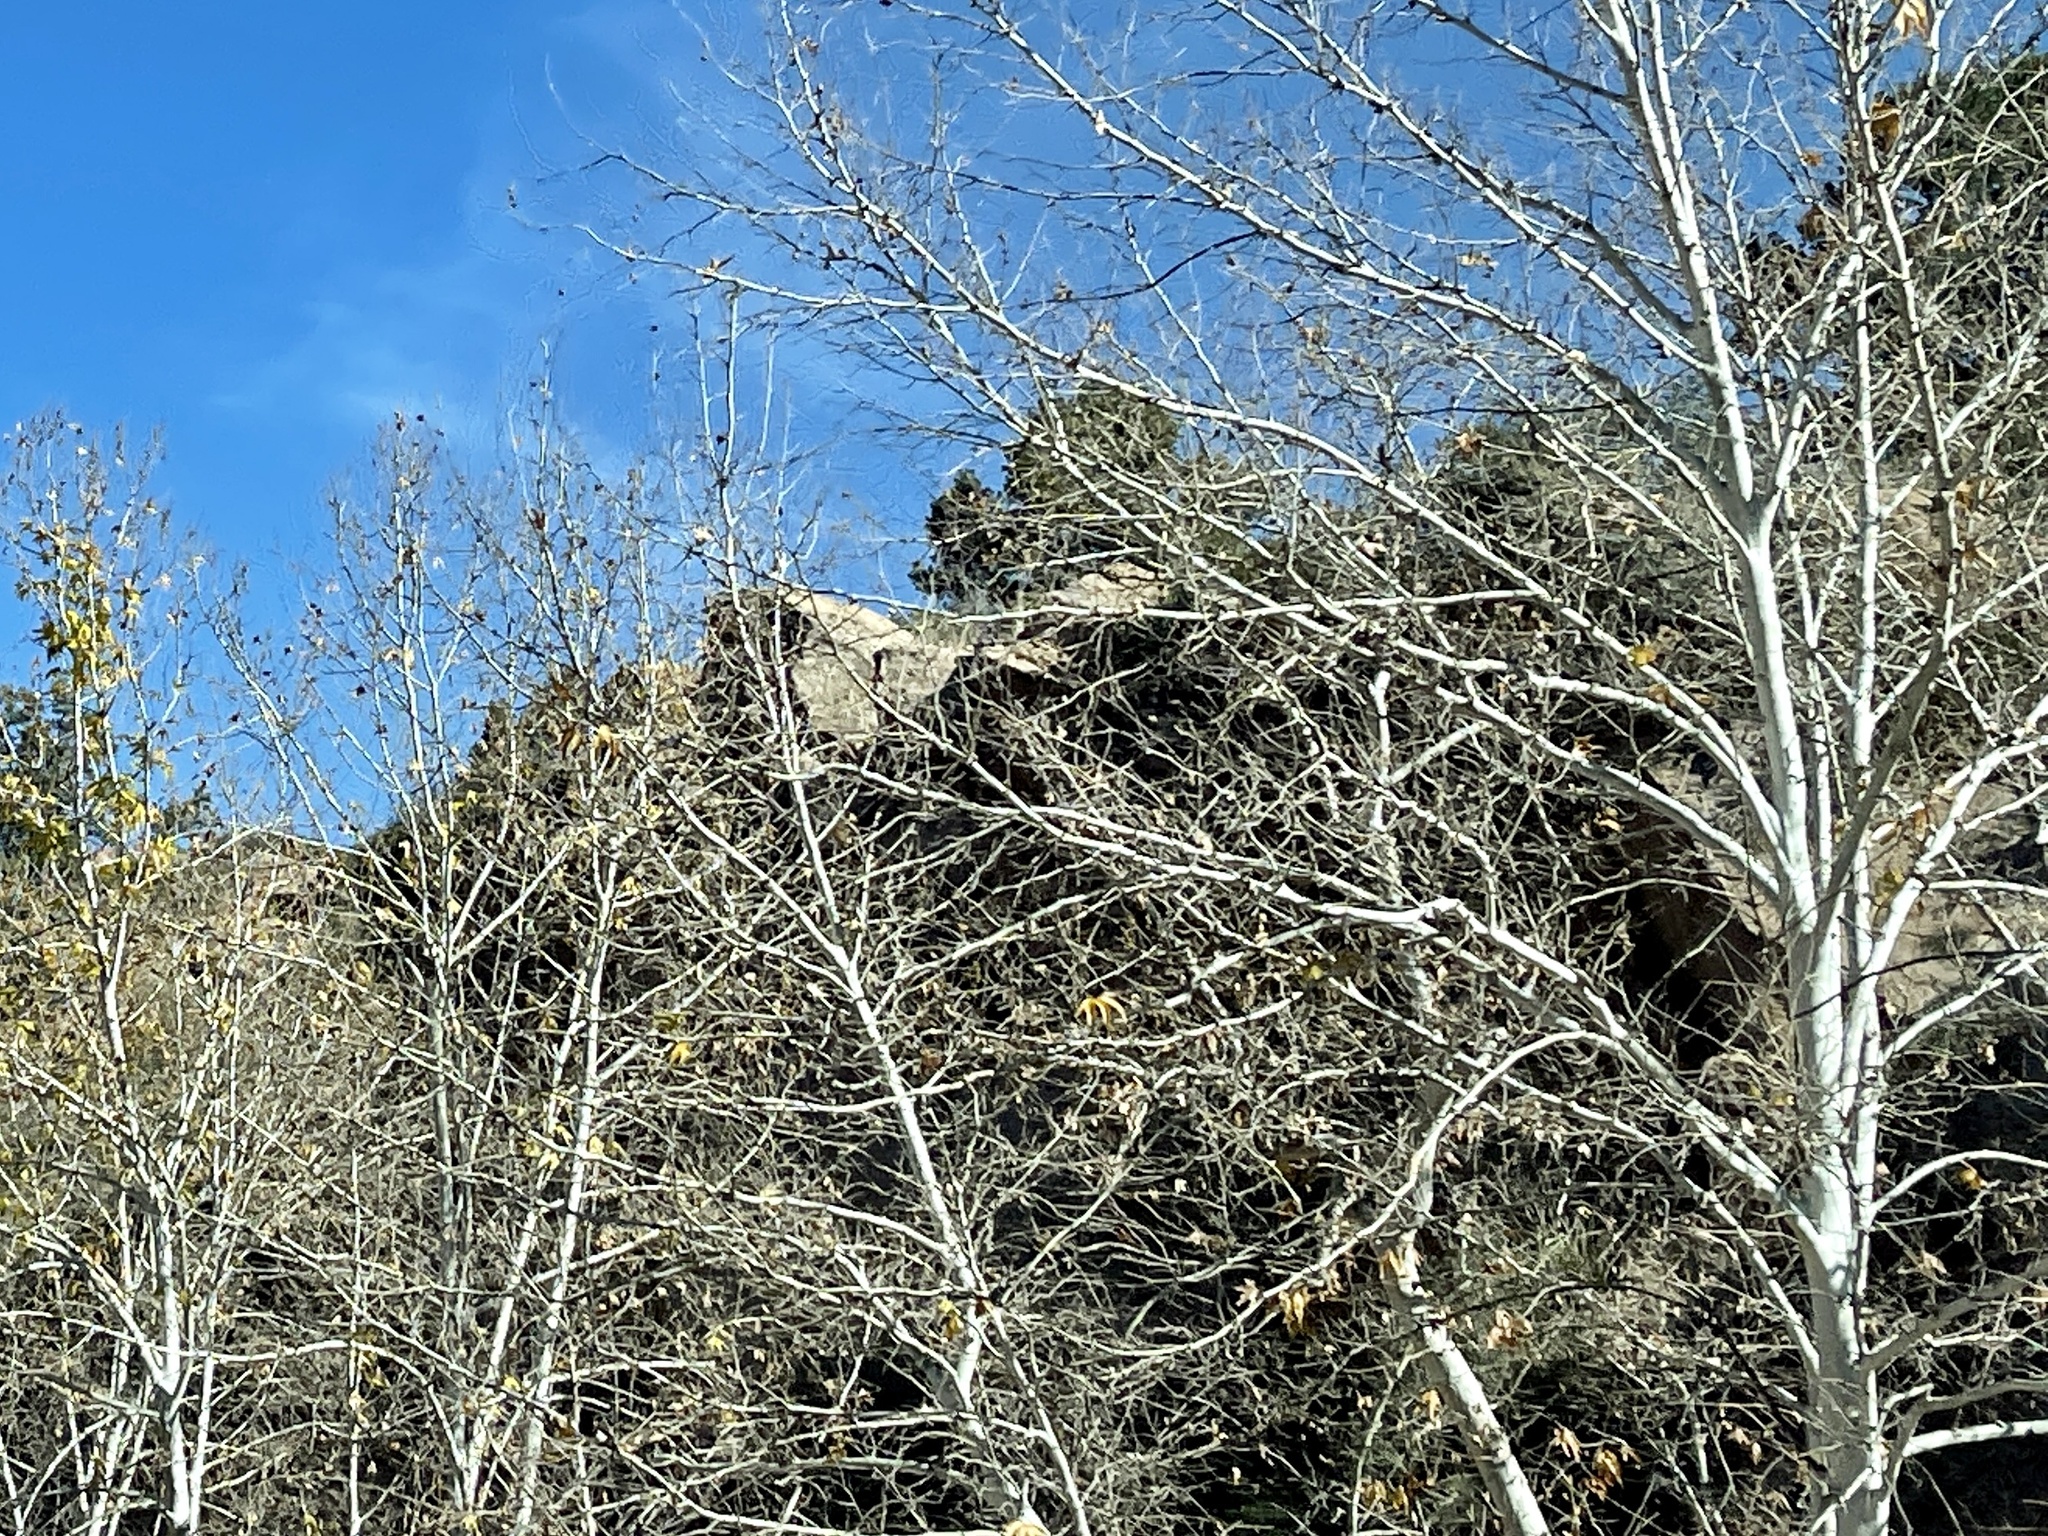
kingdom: Plantae
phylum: Tracheophyta
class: Magnoliopsida
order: Proteales
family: Platanaceae
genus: Platanus
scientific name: Platanus wrightii
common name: Arizona sycamore
